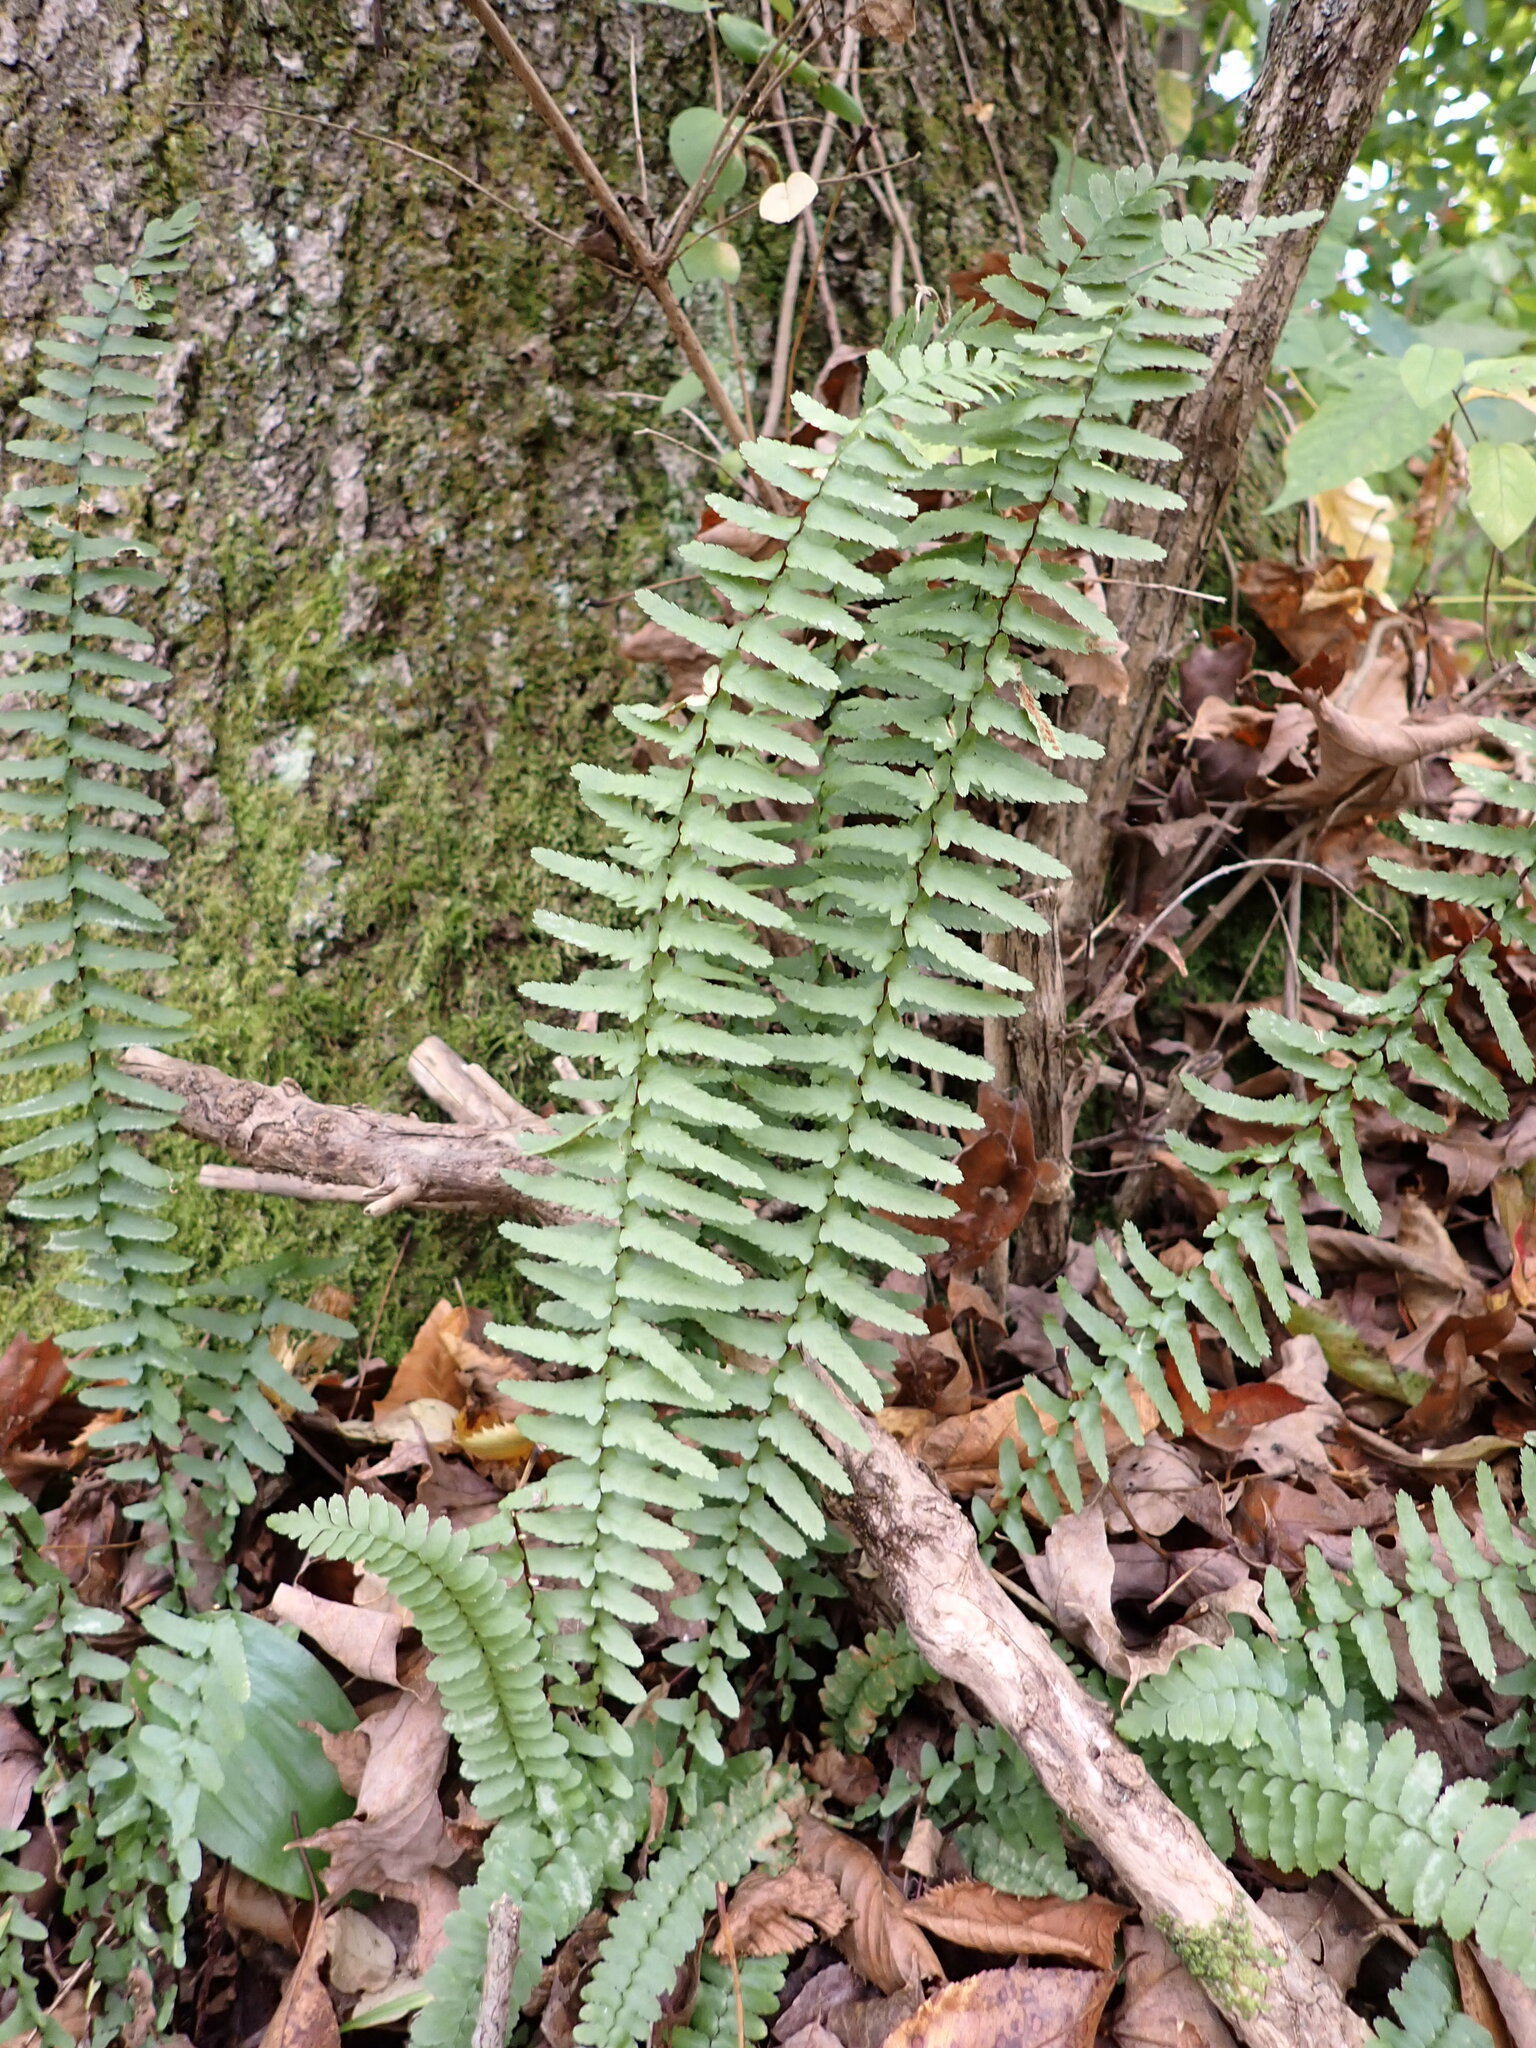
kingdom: Plantae
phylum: Tracheophyta
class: Polypodiopsida
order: Polypodiales
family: Aspleniaceae
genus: Asplenium
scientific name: Asplenium platyneuron
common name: Ebony spleenwort
